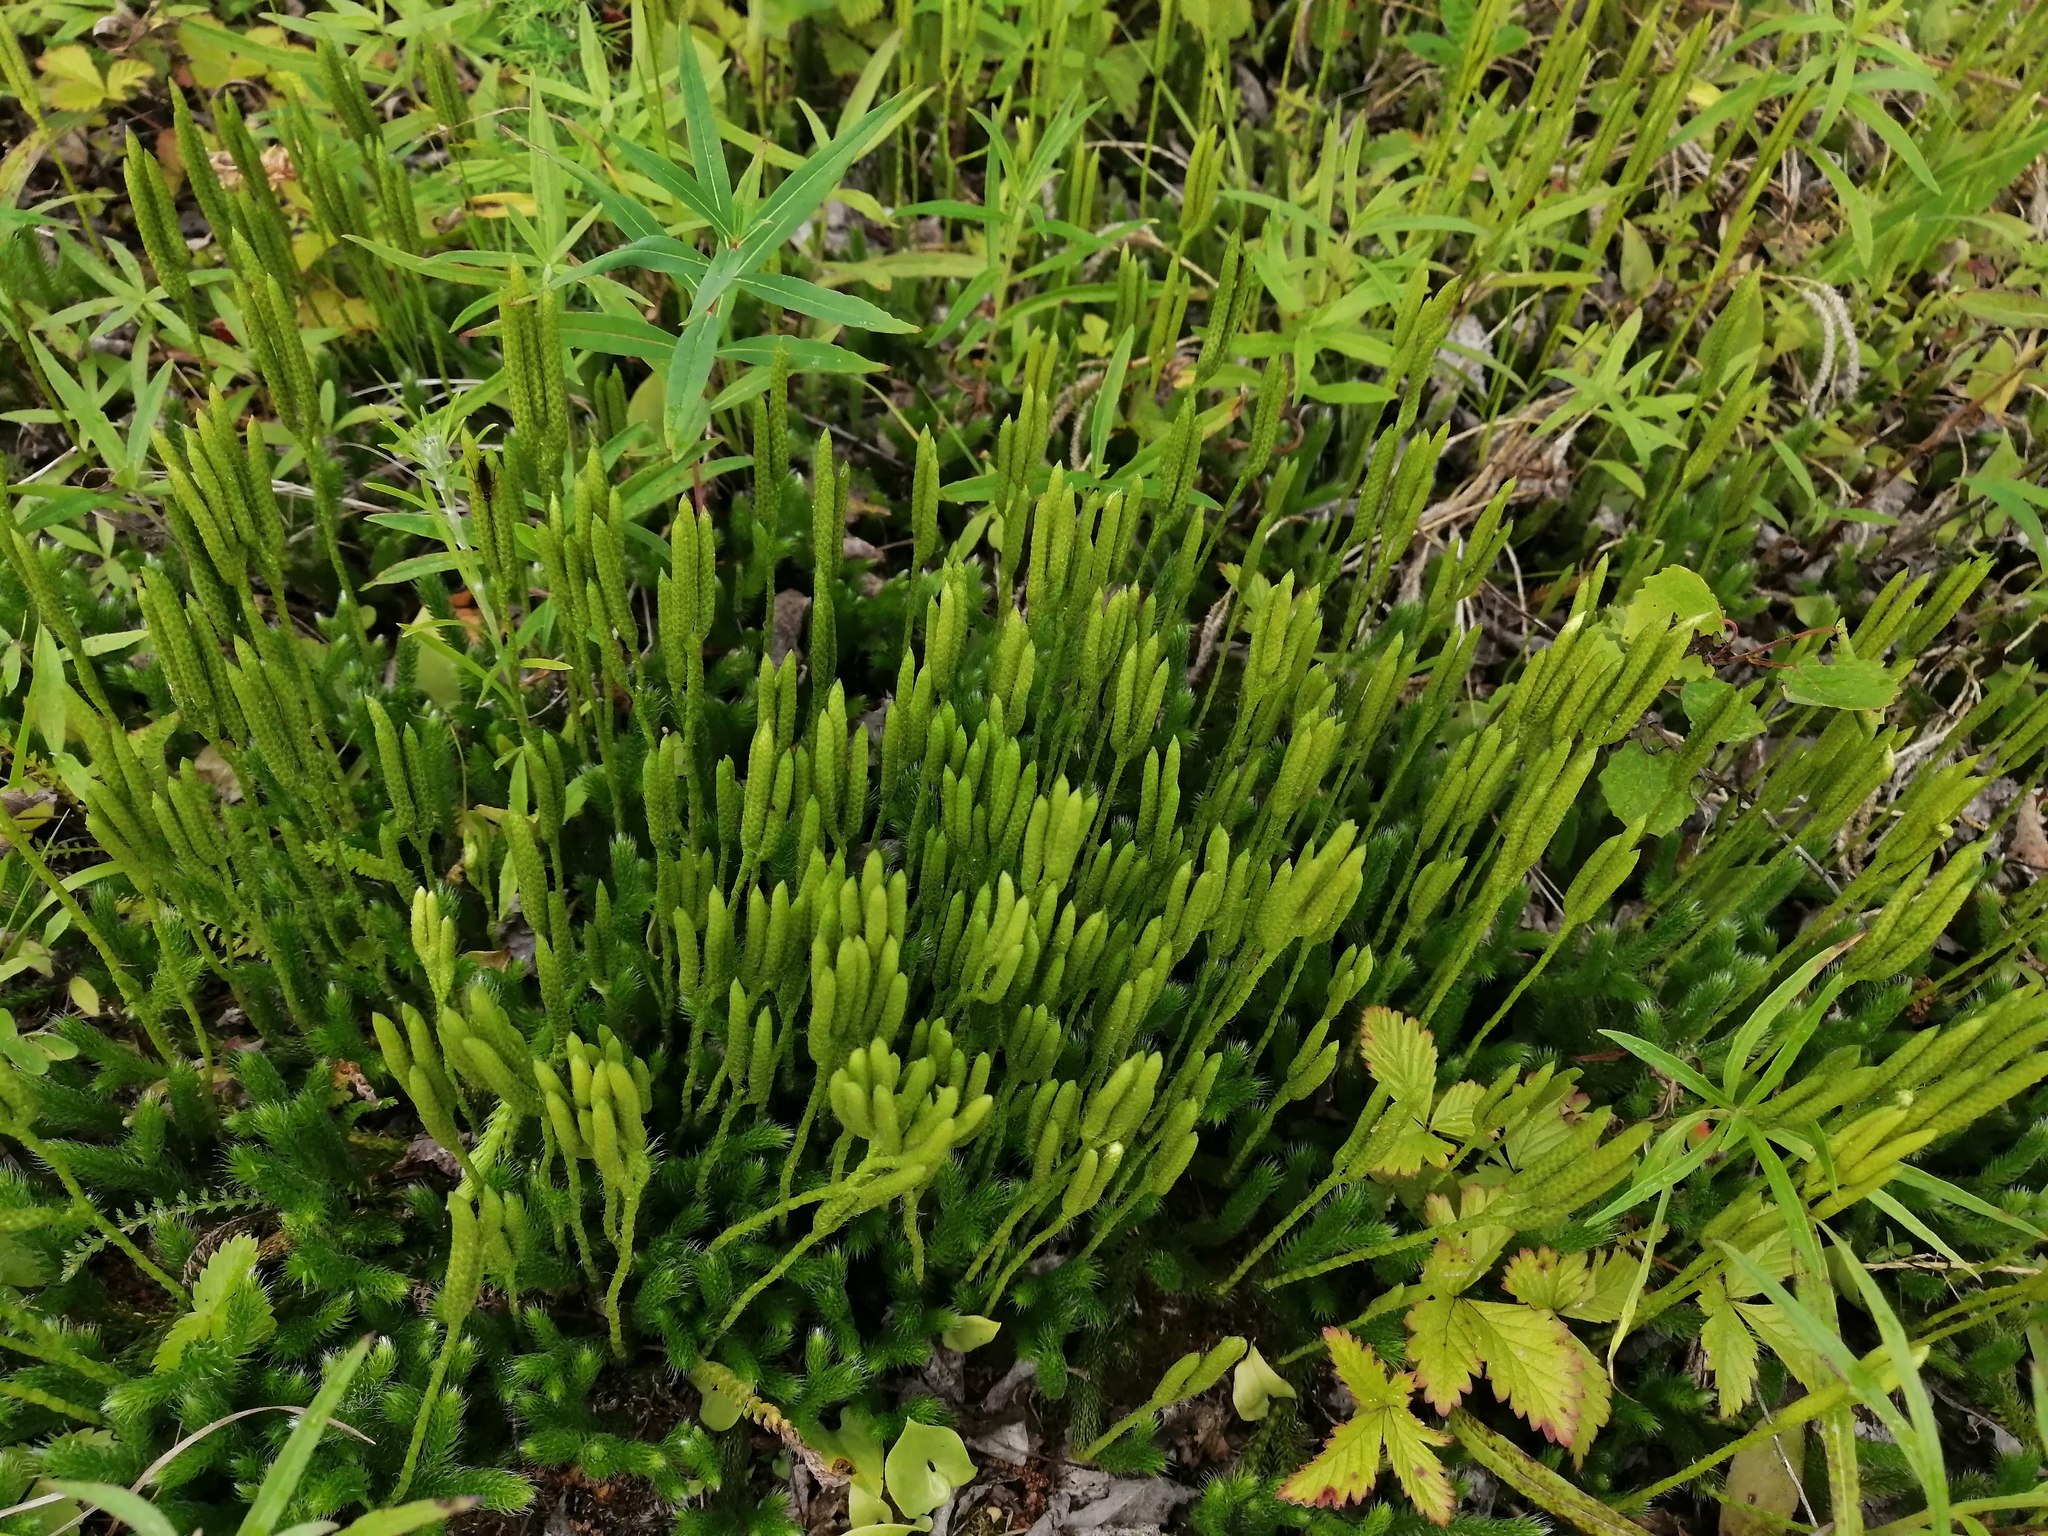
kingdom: Plantae
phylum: Tracheophyta
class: Lycopodiopsida
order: Lycopodiales
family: Lycopodiaceae
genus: Lycopodium
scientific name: Lycopodium clavatum
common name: Stag's-horn clubmoss
